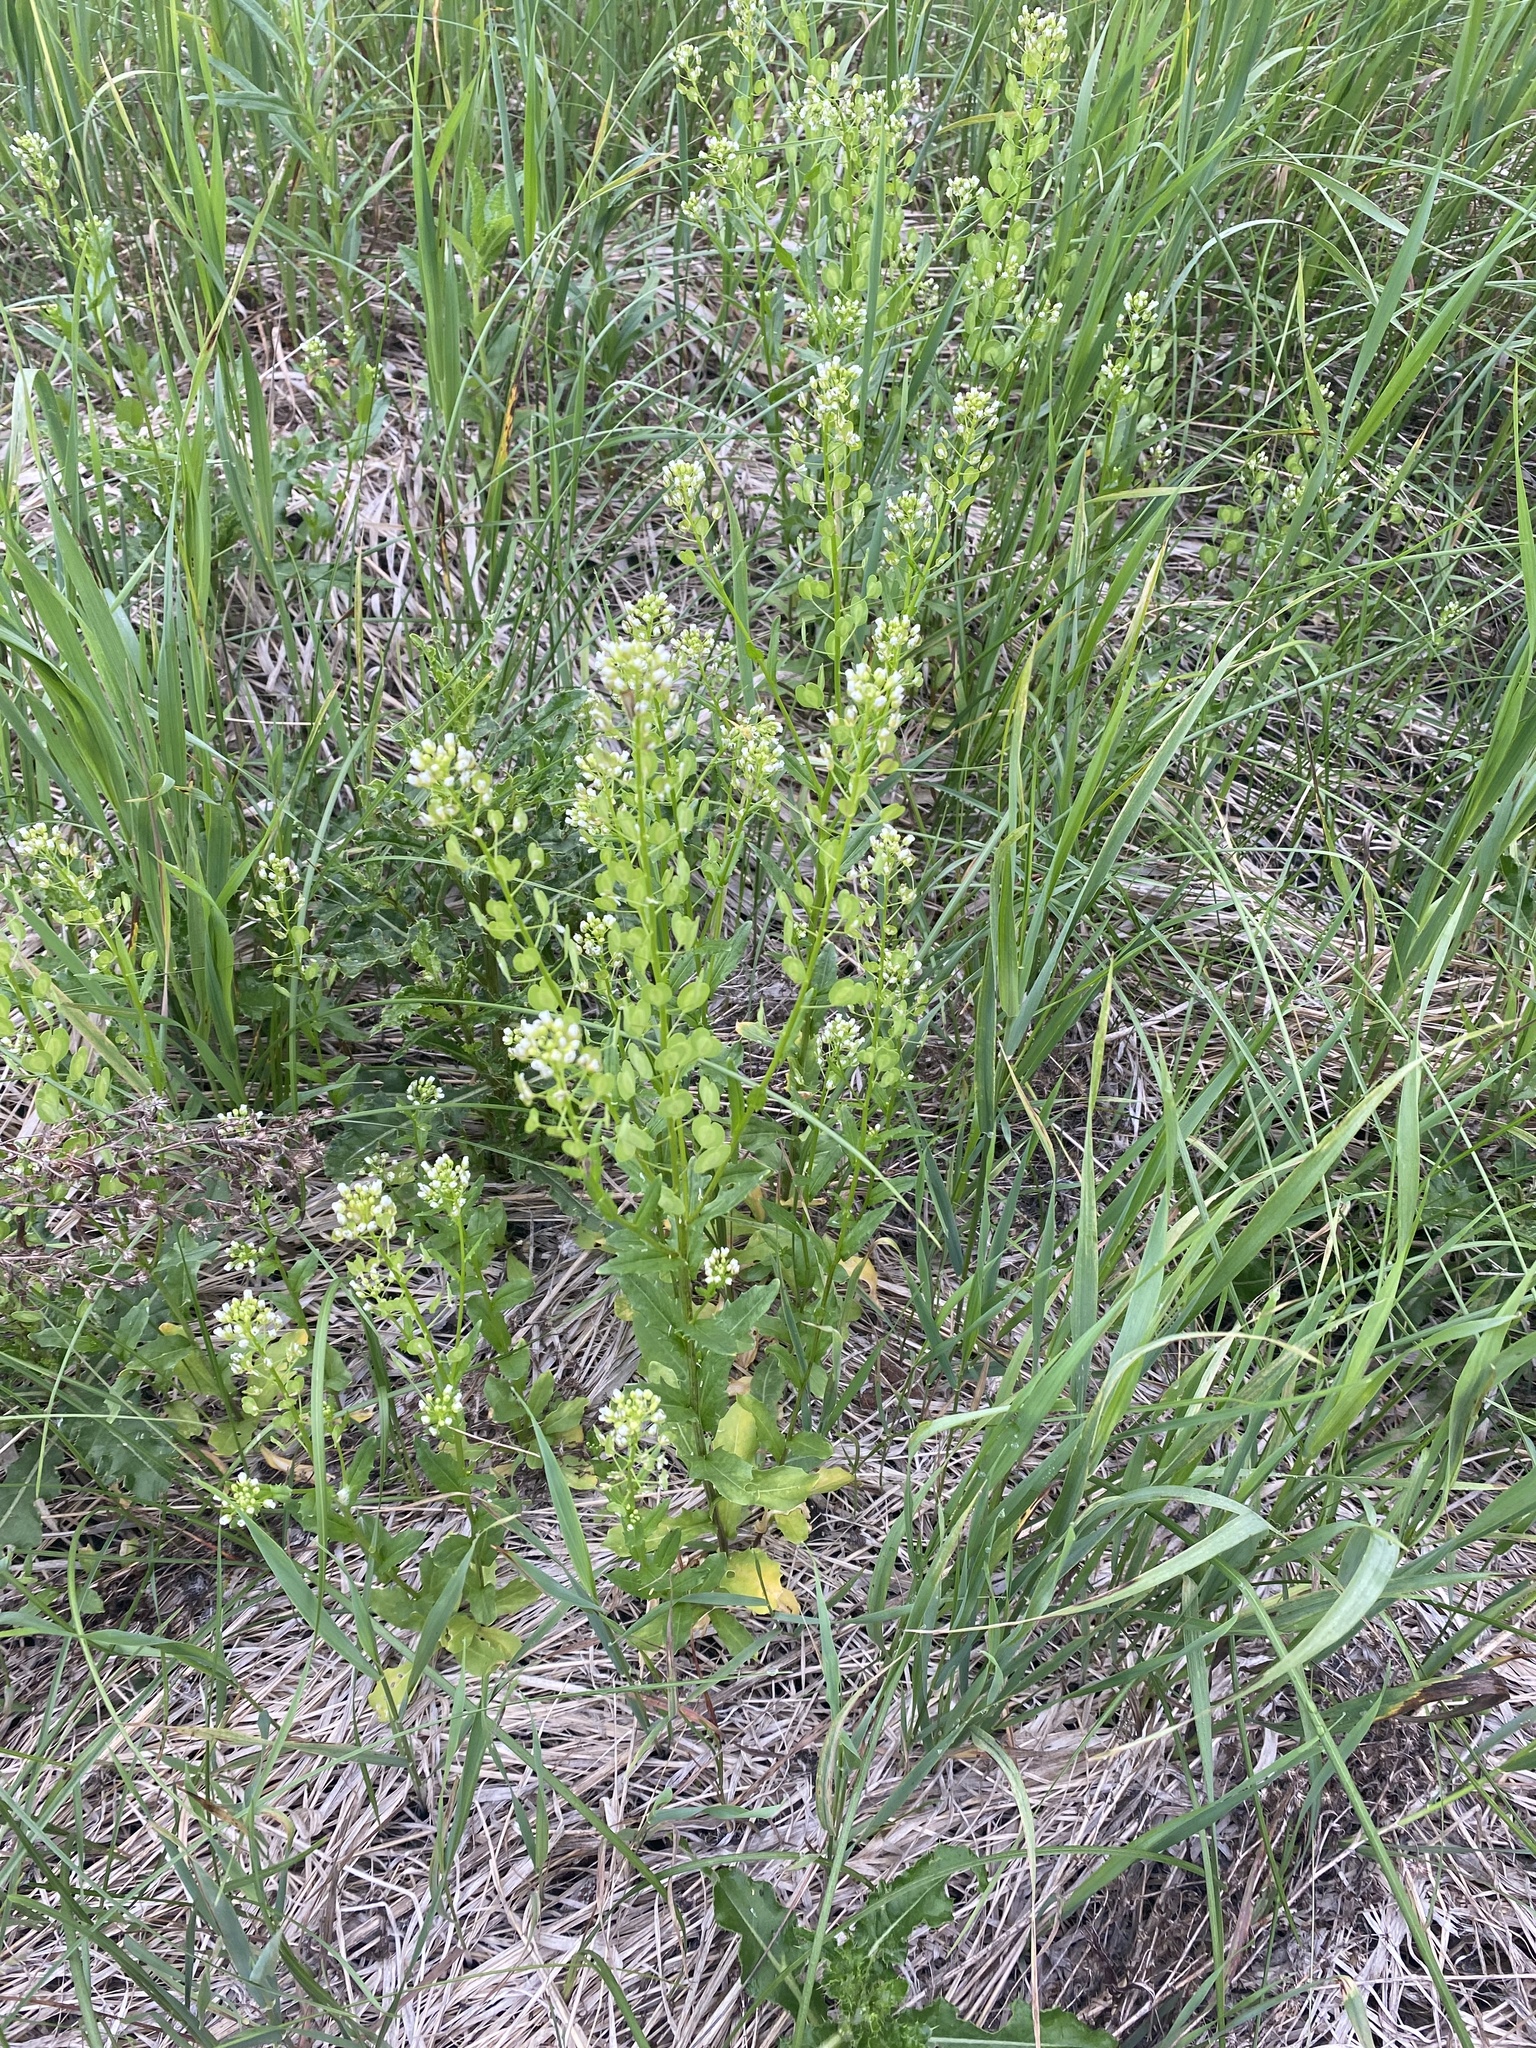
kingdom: Plantae
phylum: Tracheophyta
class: Magnoliopsida
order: Brassicales
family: Brassicaceae
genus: Thlaspi
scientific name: Thlaspi arvense
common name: Field pennycress
